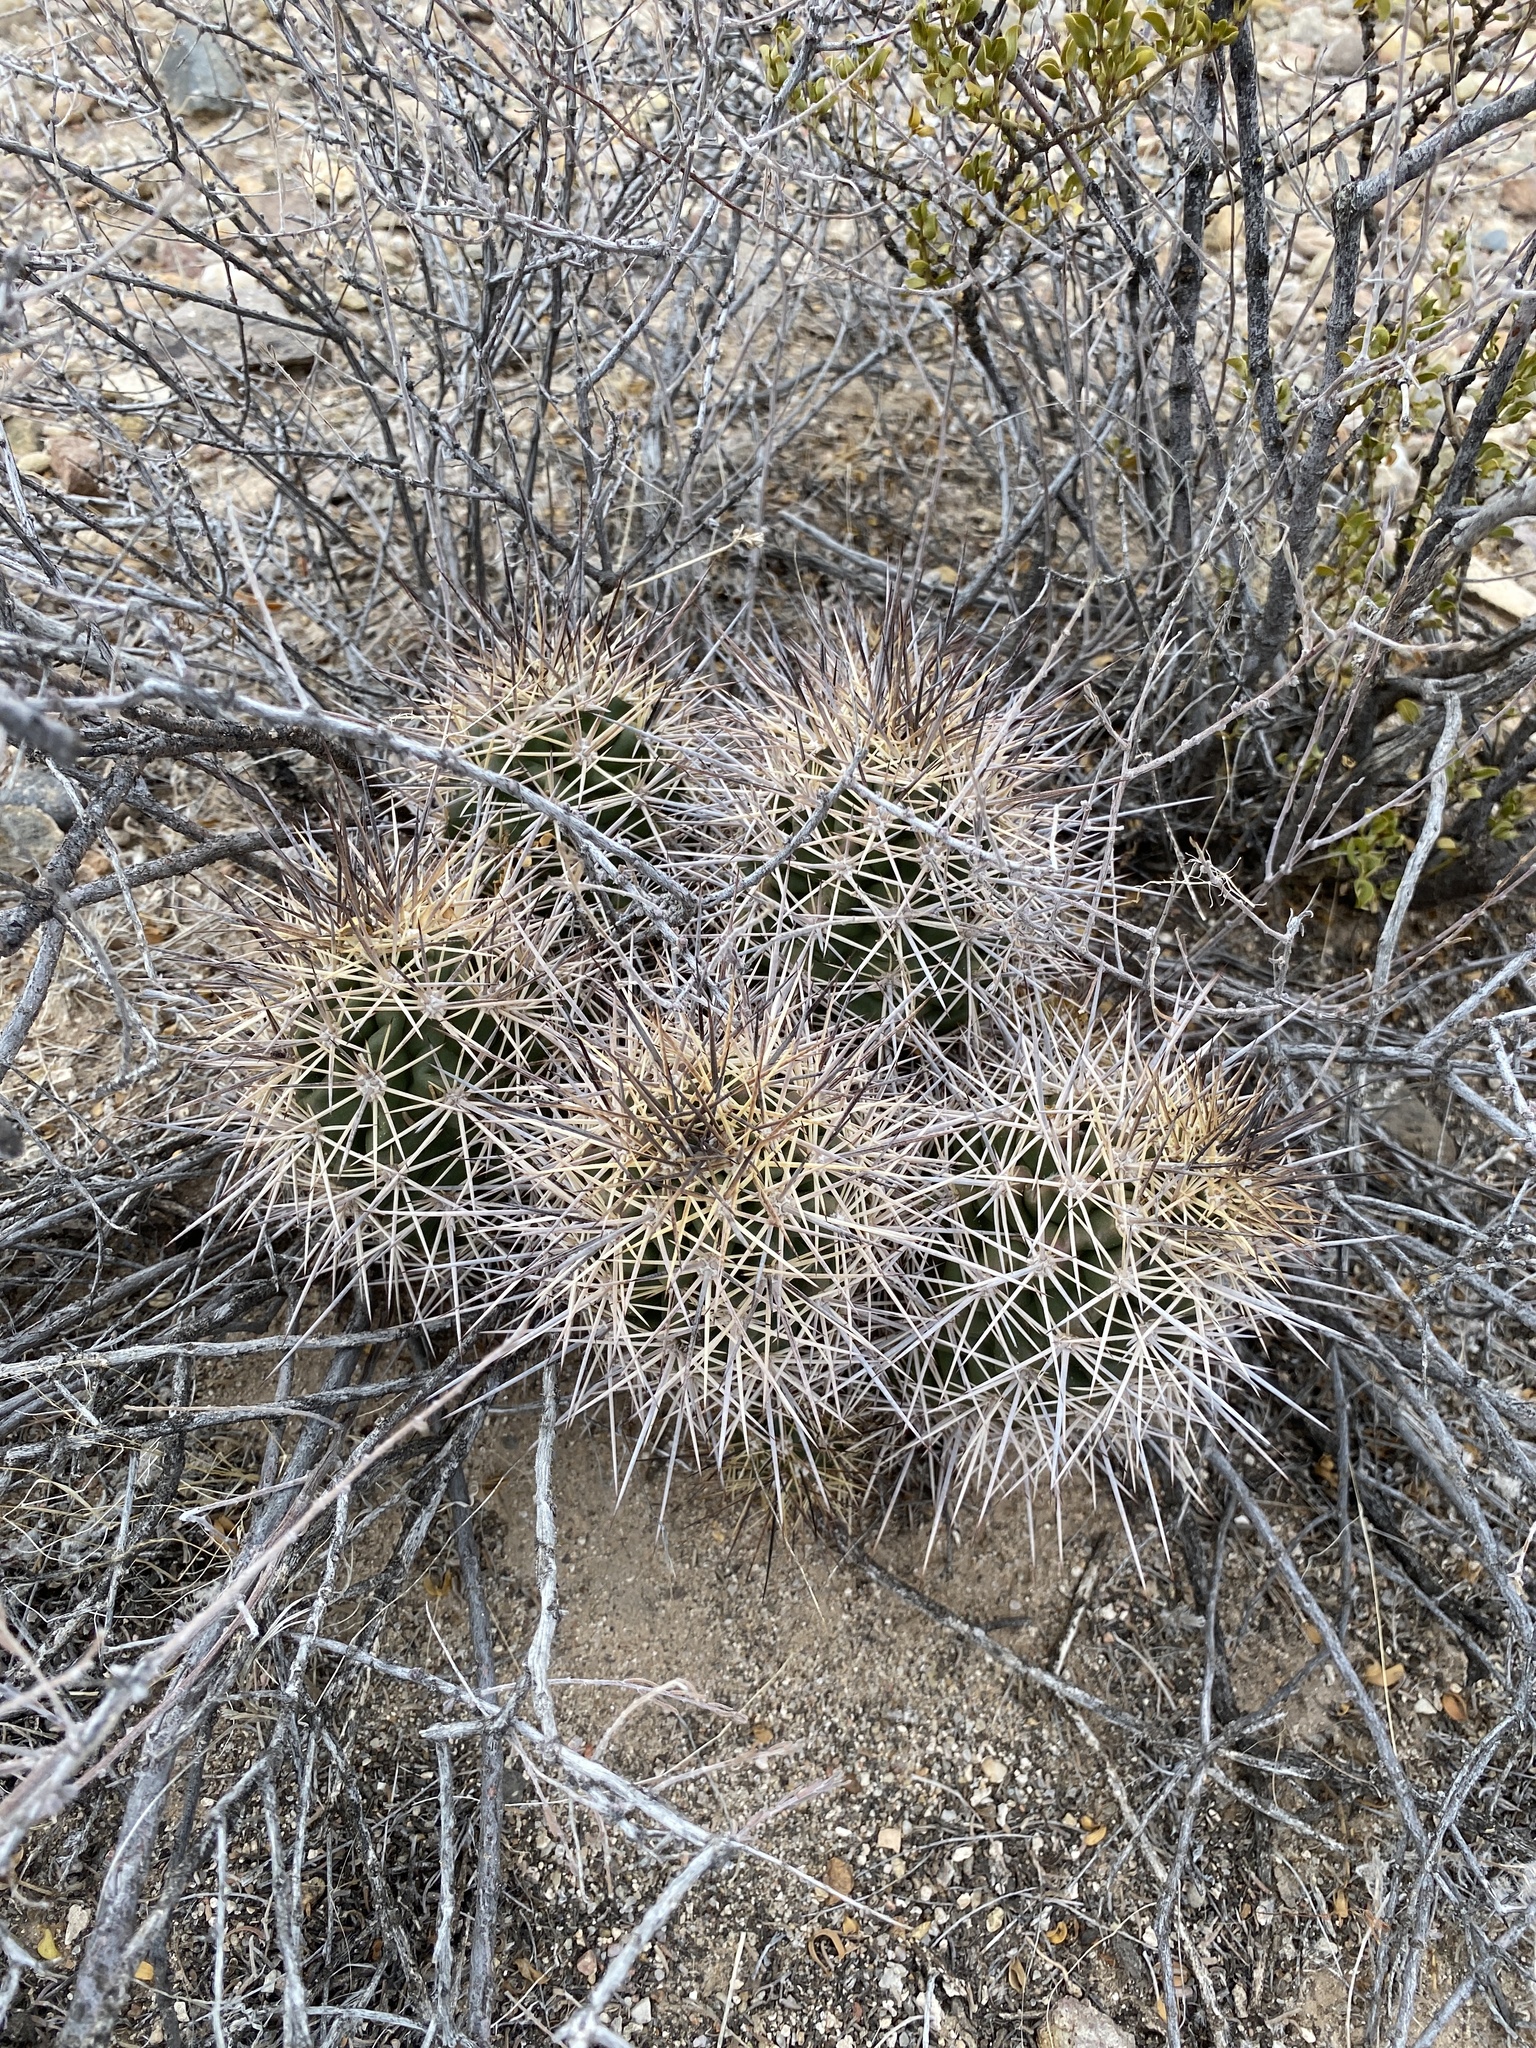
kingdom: Plantae
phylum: Tracheophyta
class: Magnoliopsida
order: Caryophyllales
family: Cactaceae
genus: Echinocereus
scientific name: Echinocereus coccineus
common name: Scarlet hedgehog cactus
